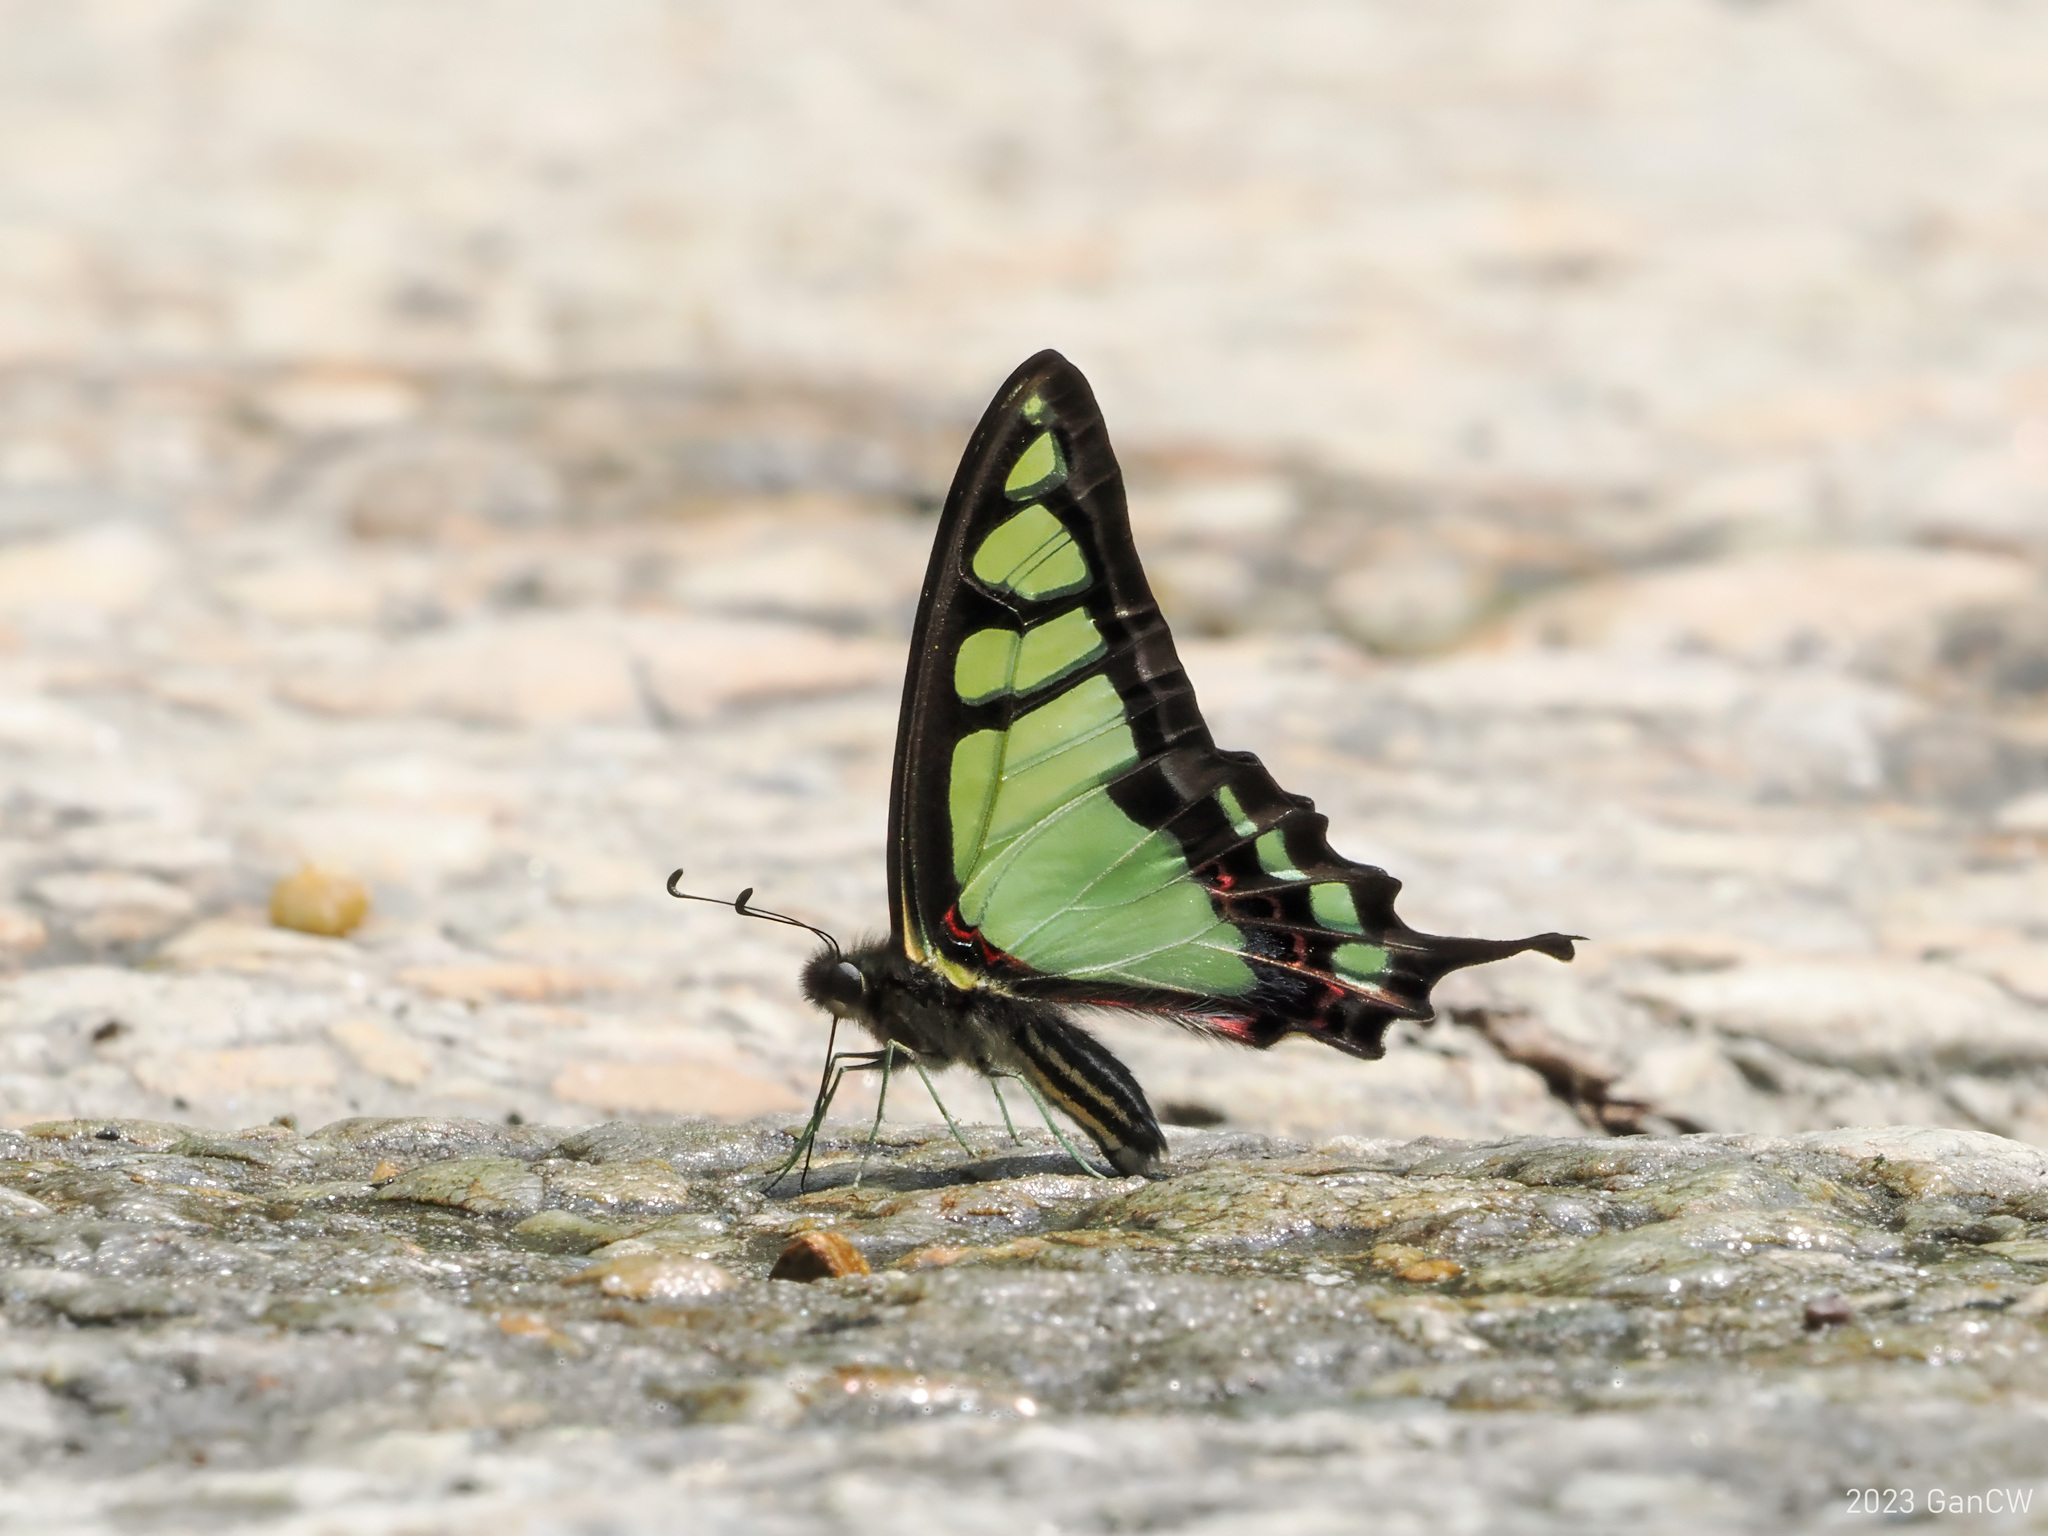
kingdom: Animalia
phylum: Arthropoda
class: Insecta
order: Lepidoptera
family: Papilionidae
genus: Graphium
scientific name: Graphium cloanthus
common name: Glassy bluebottle
